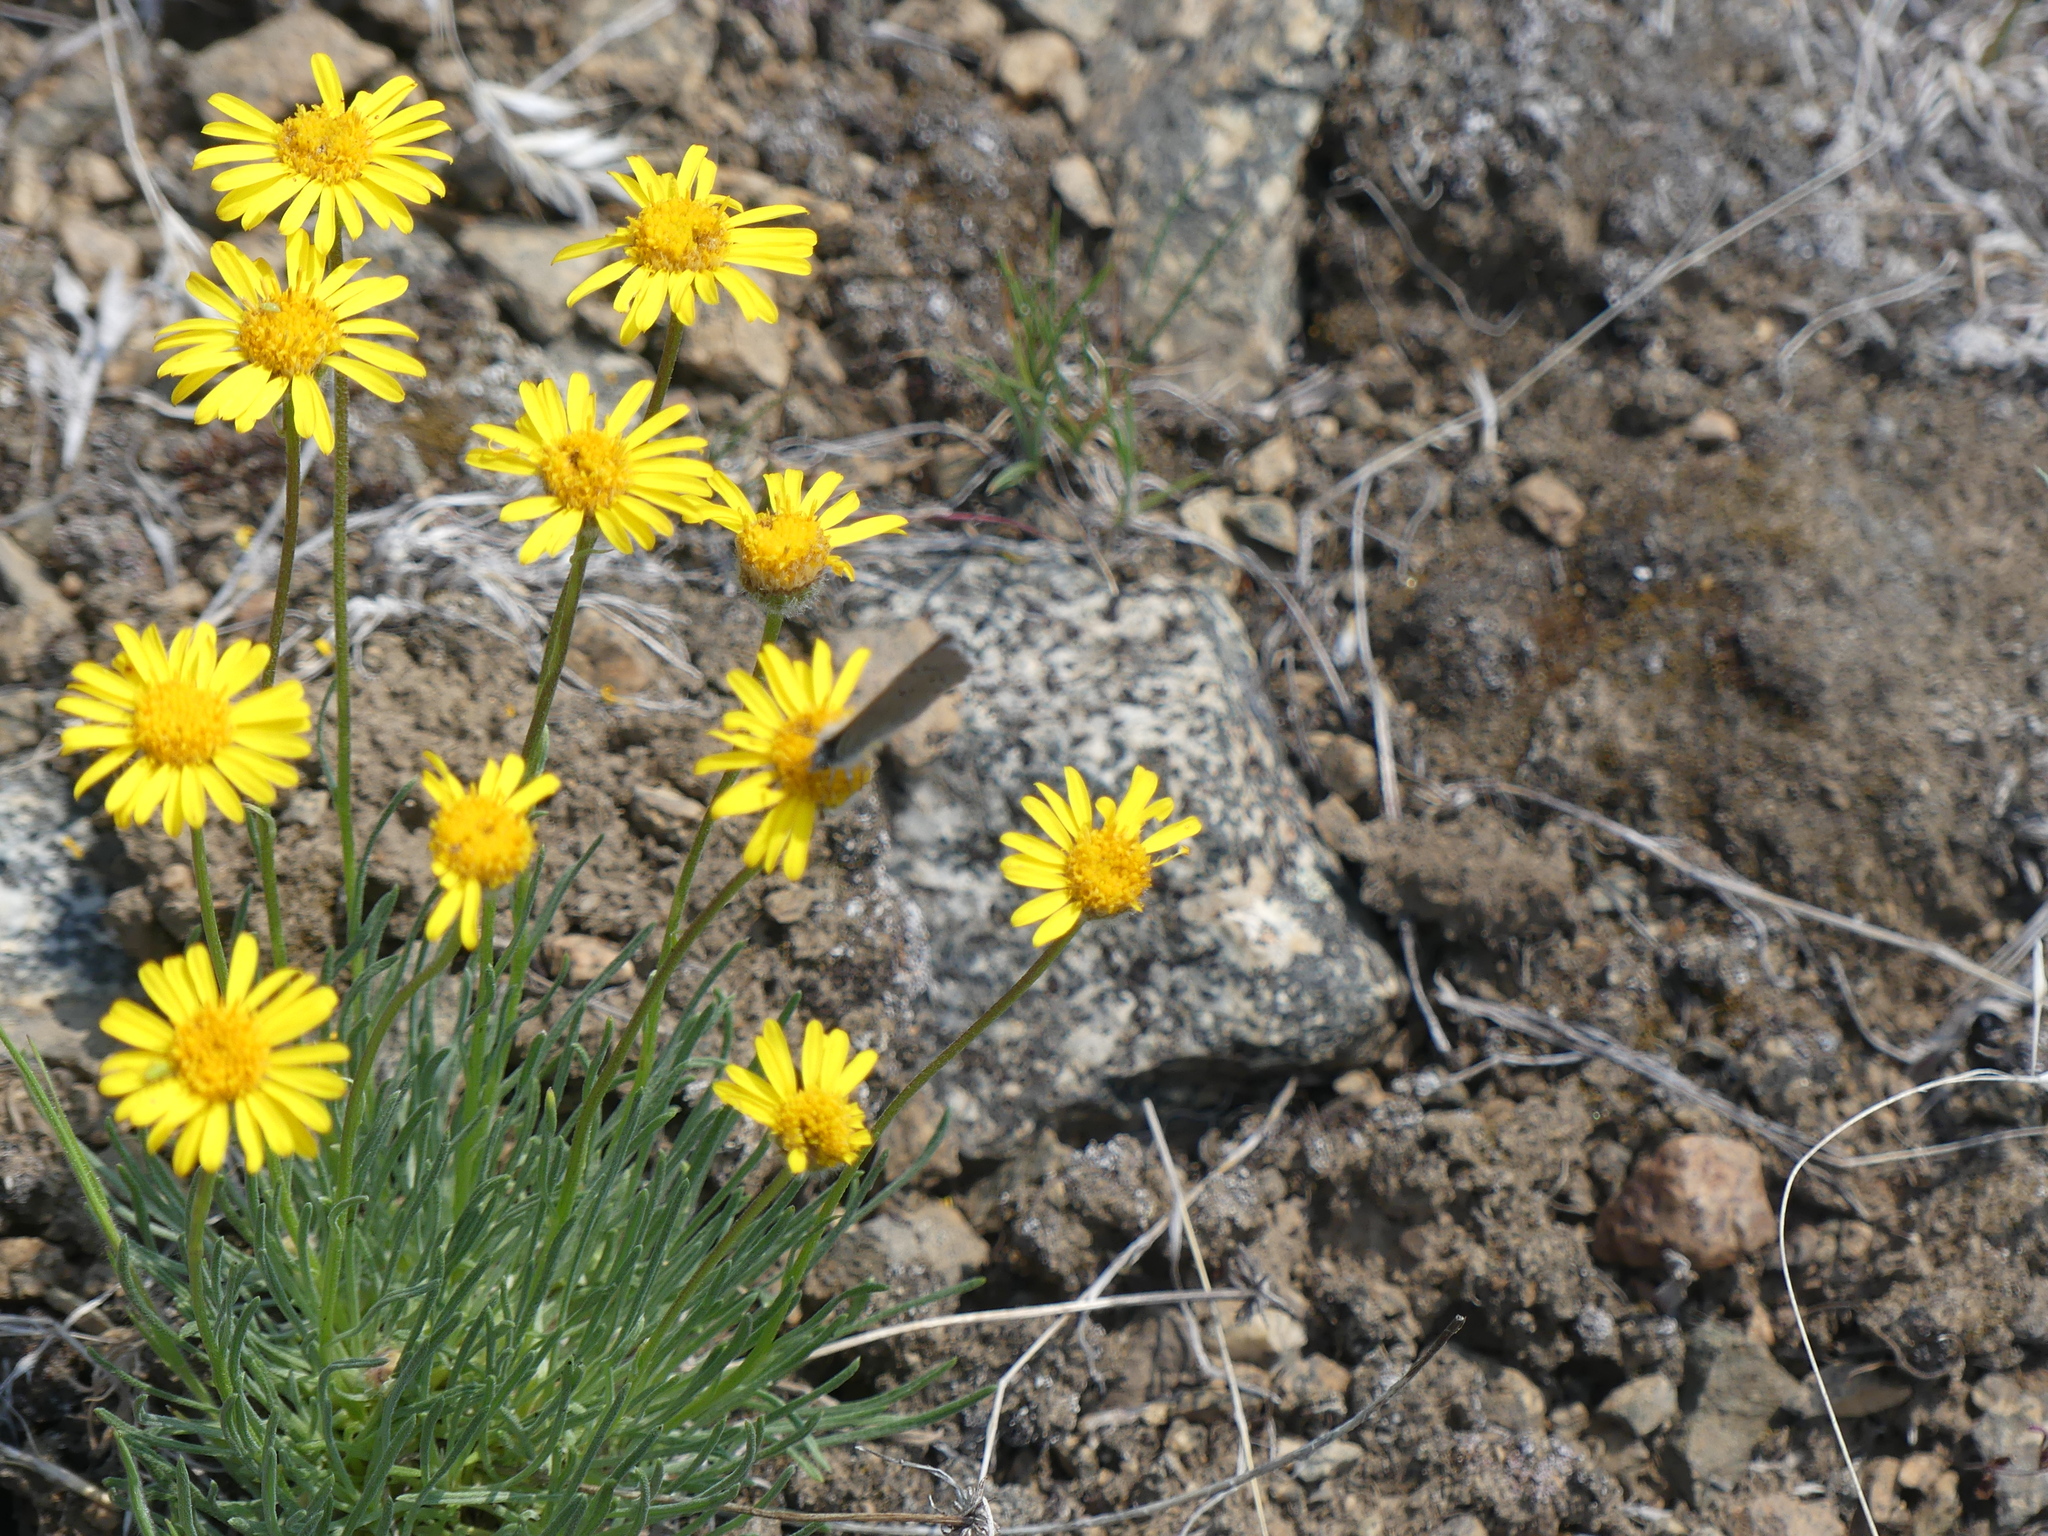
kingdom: Animalia
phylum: Arthropoda
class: Insecta
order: Lepidoptera
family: Lycaenidae
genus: Glaucopsyche
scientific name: Glaucopsyche lygdamus
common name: Silvery blue
